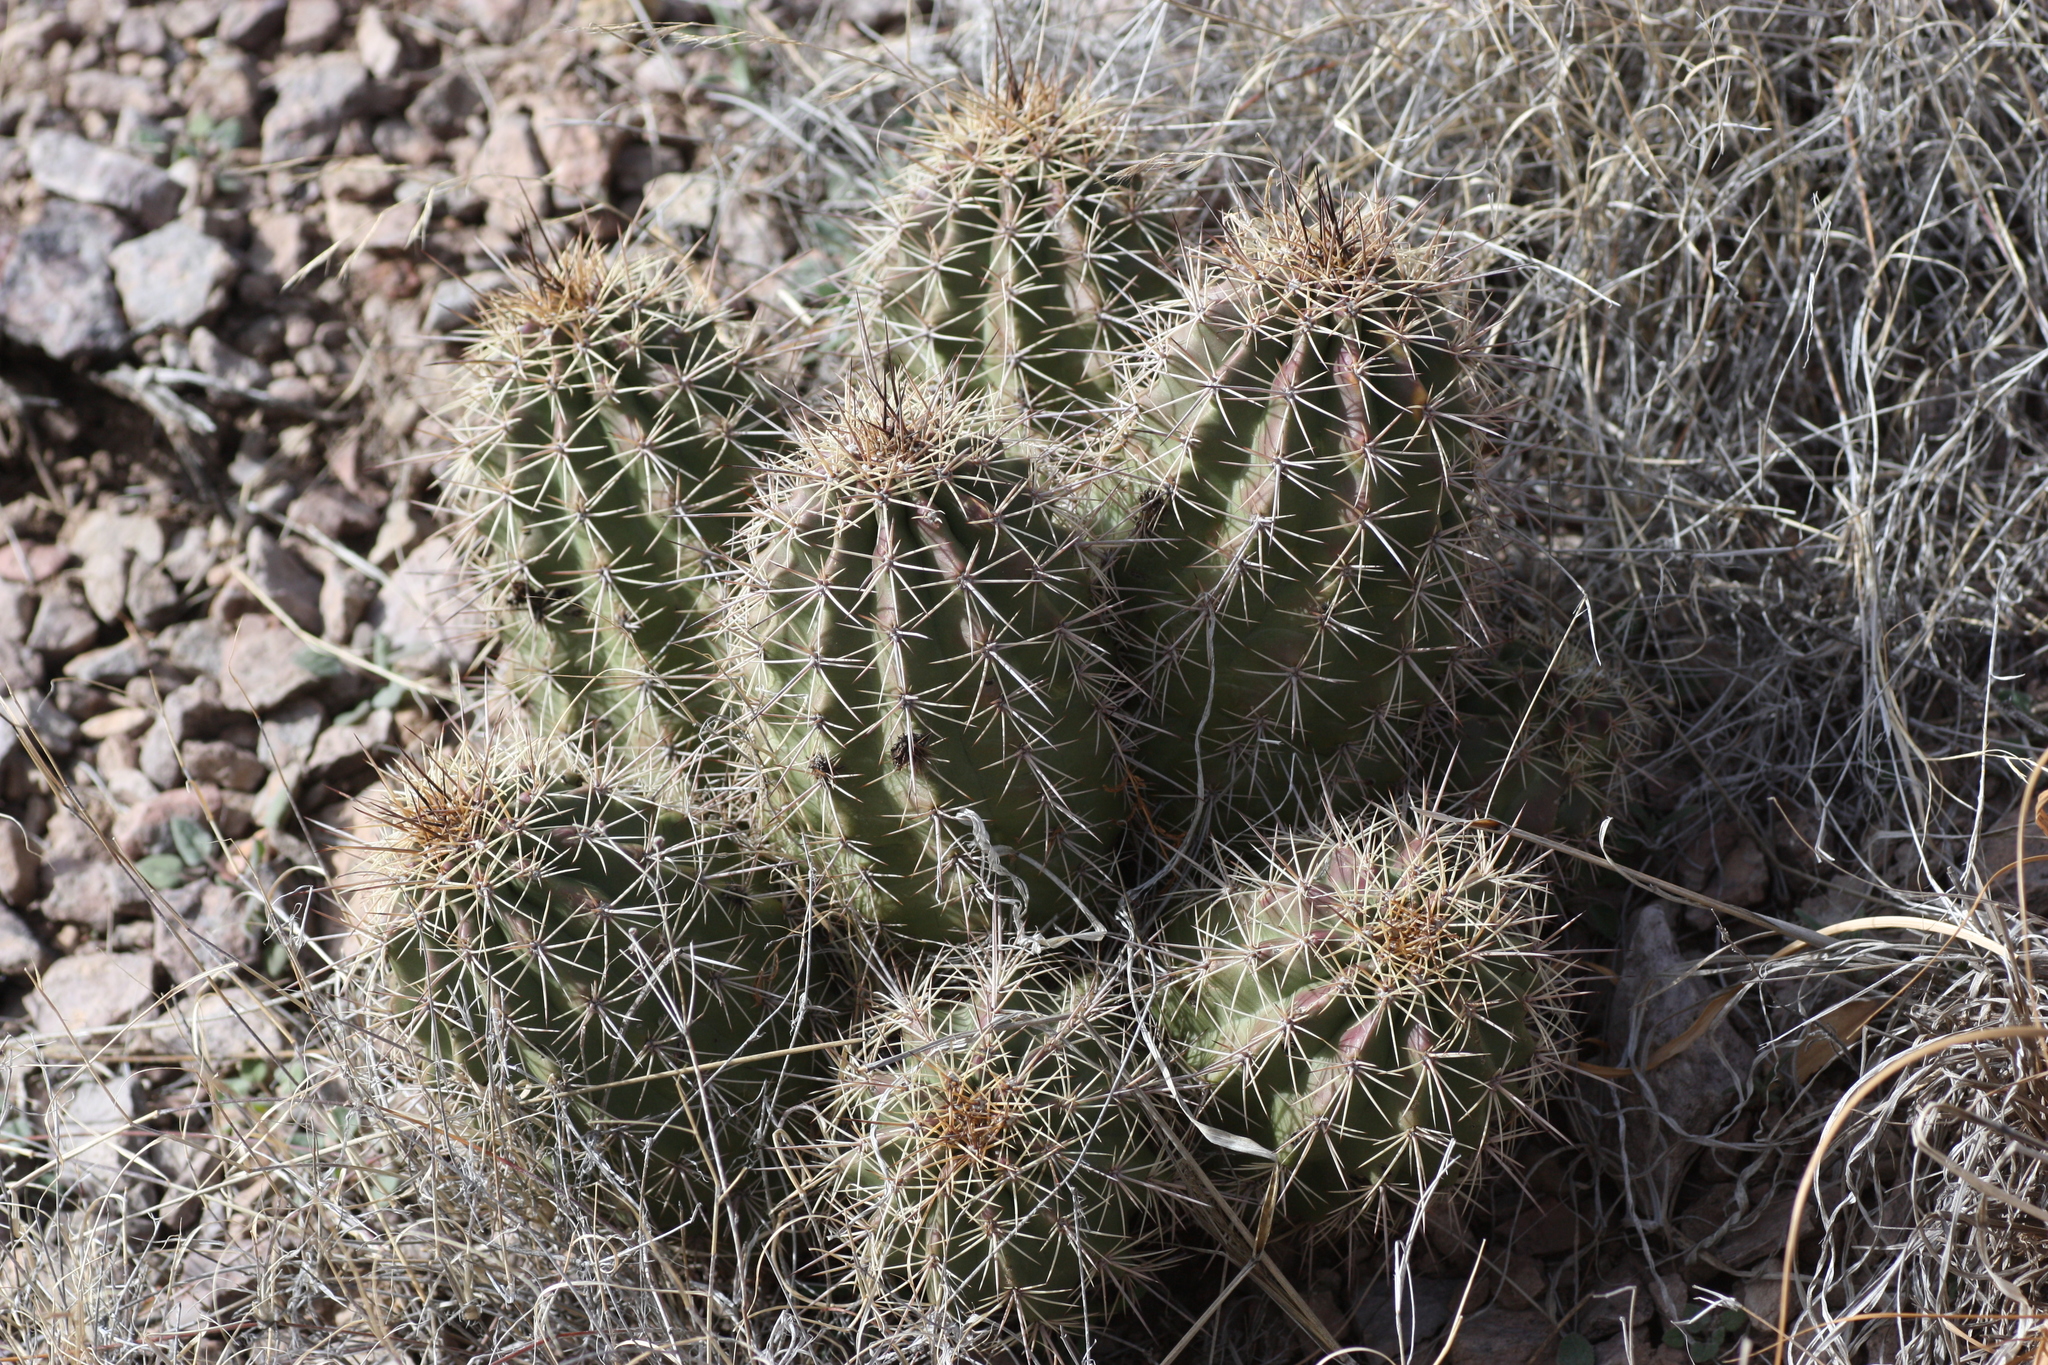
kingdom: Plantae
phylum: Tracheophyta
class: Magnoliopsida
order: Caryophyllales
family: Cactaceae
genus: Echinocereus
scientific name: Echinocereus coccineus
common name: Scarlet hedgehog cactus
